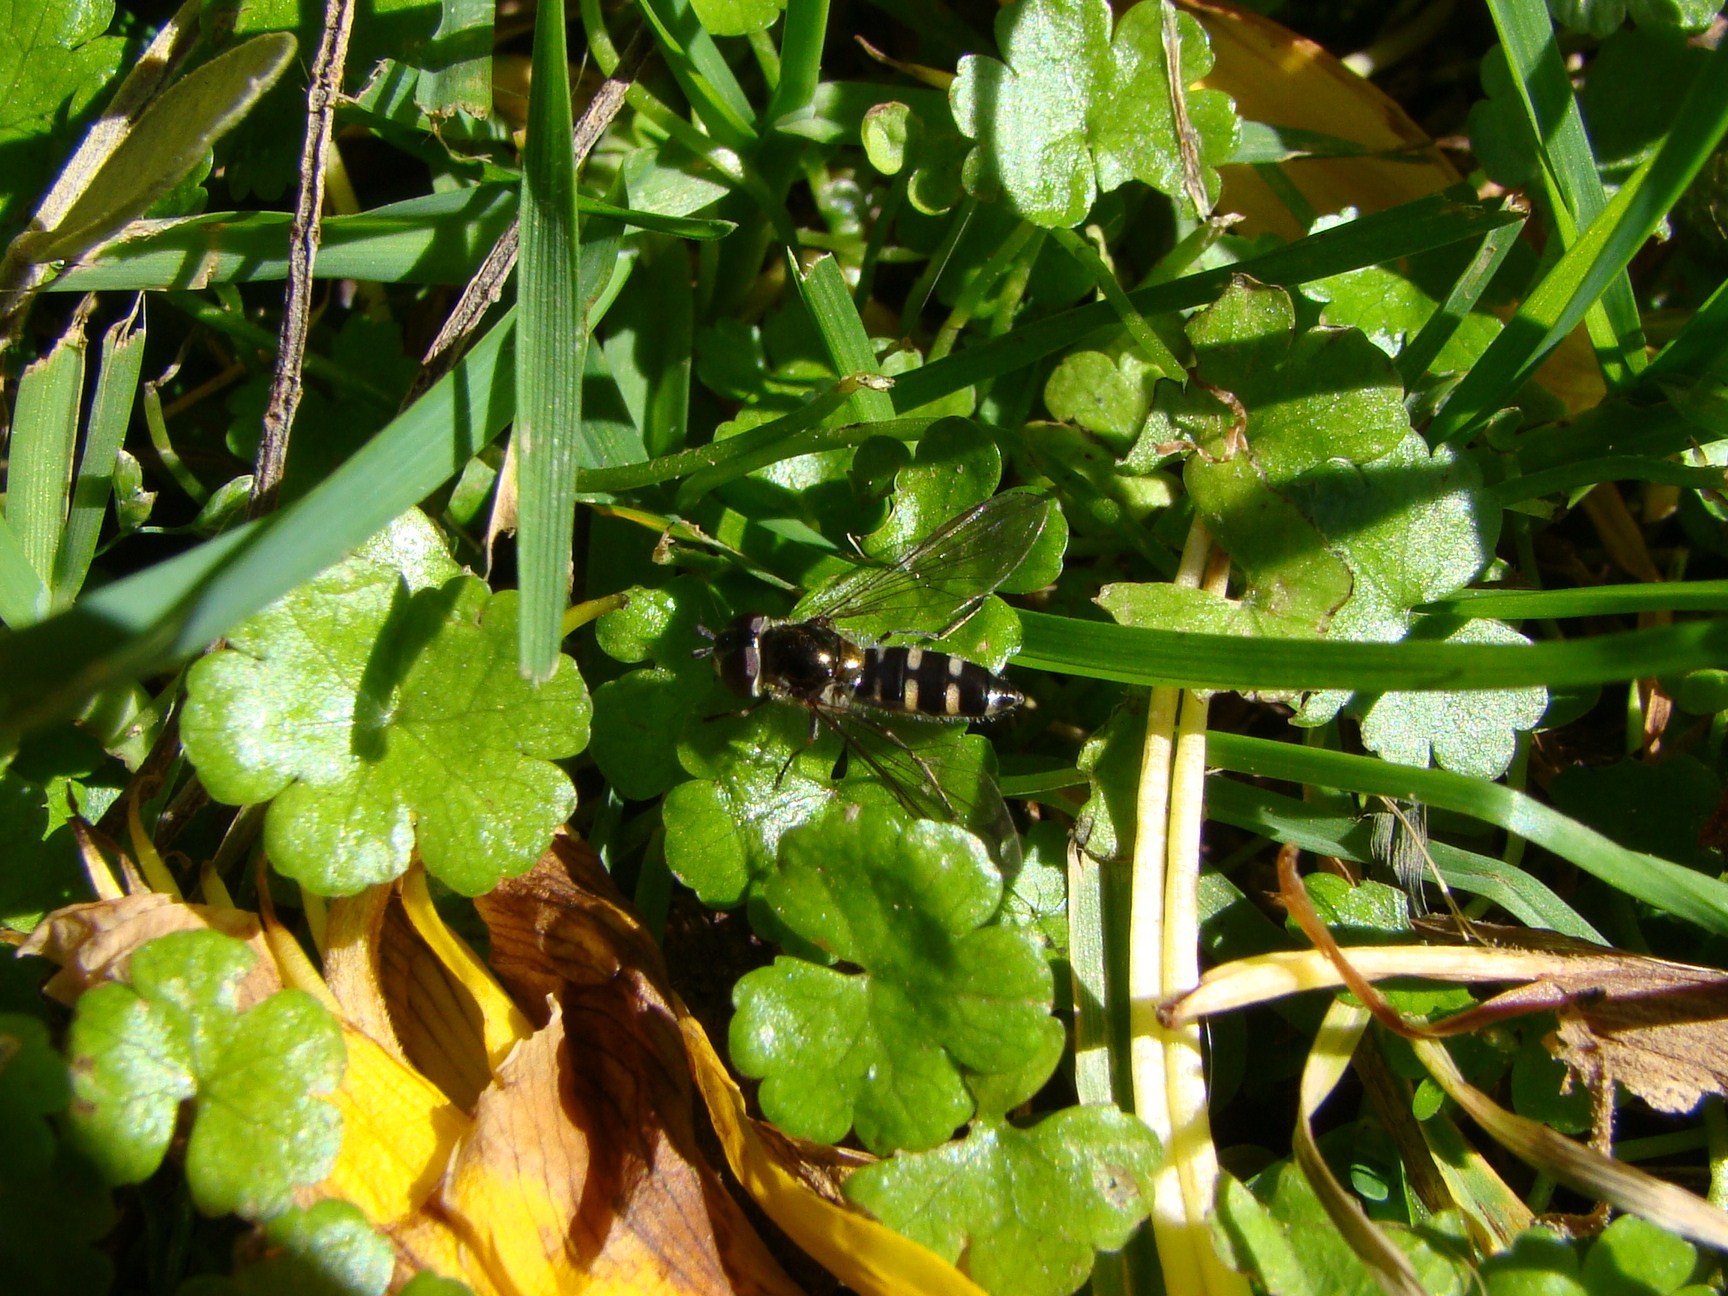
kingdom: Animalia
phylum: Arthropoda
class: Insecta
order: Diptera
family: Syrphidae
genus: Melangyna
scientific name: Melangyna novaezelandiae
